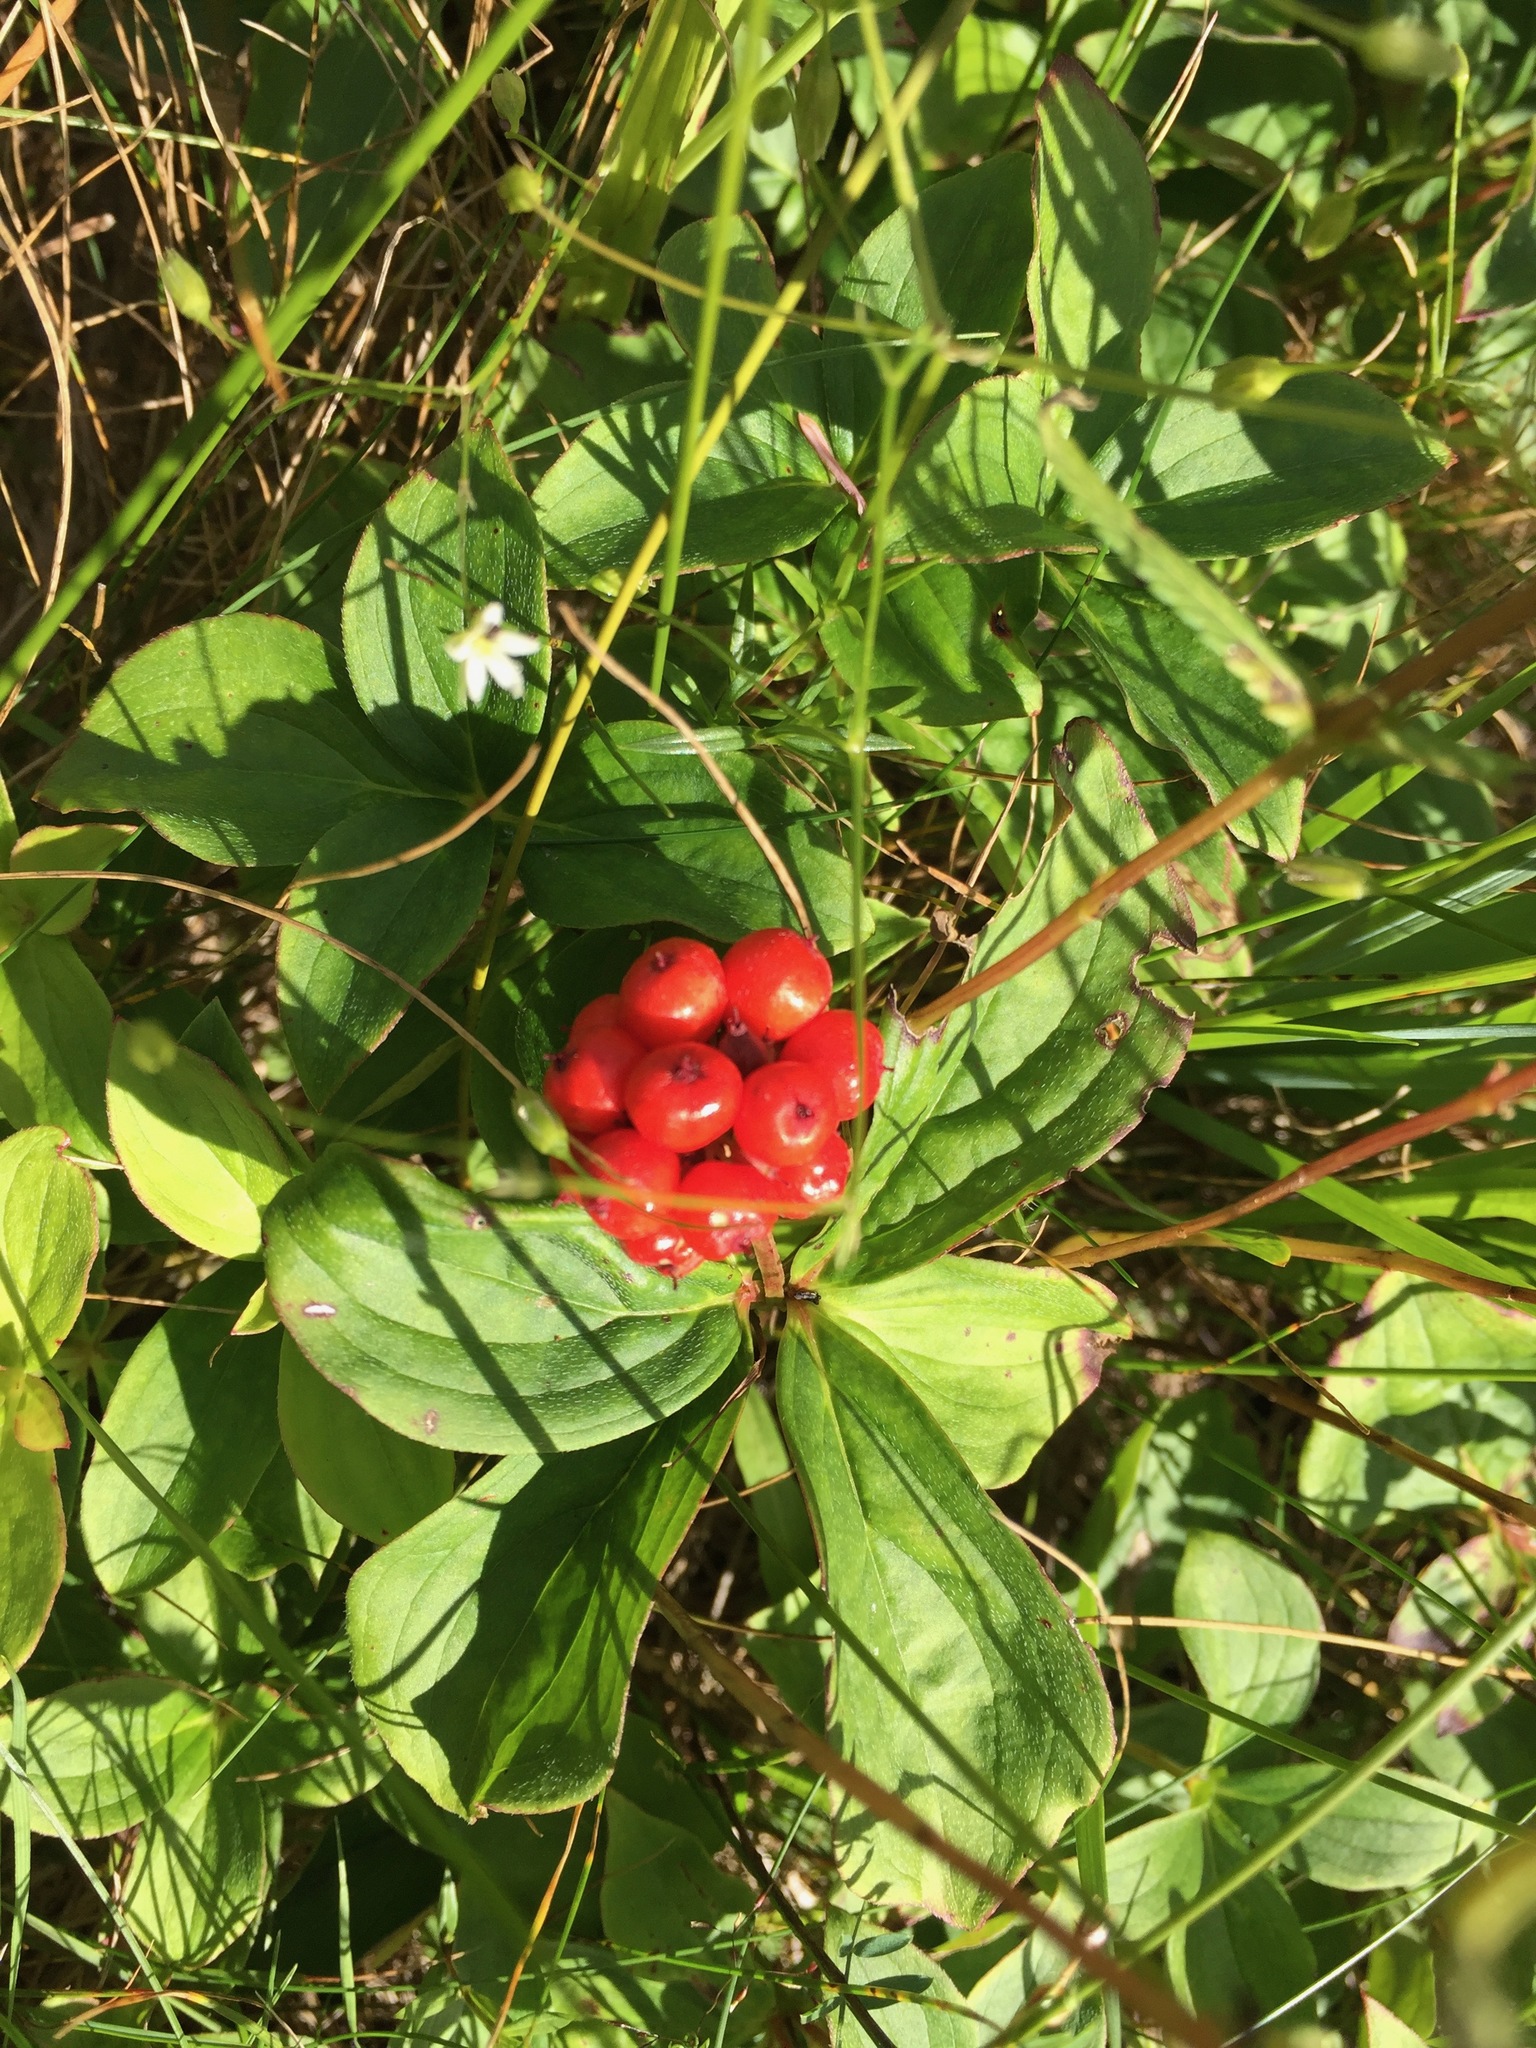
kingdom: Plantae
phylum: Tracheophyta
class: Magnoliopsida
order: Cornales
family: Cornaceae
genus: Cornus
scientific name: Cornus canadensis
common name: Creeping dogwood
